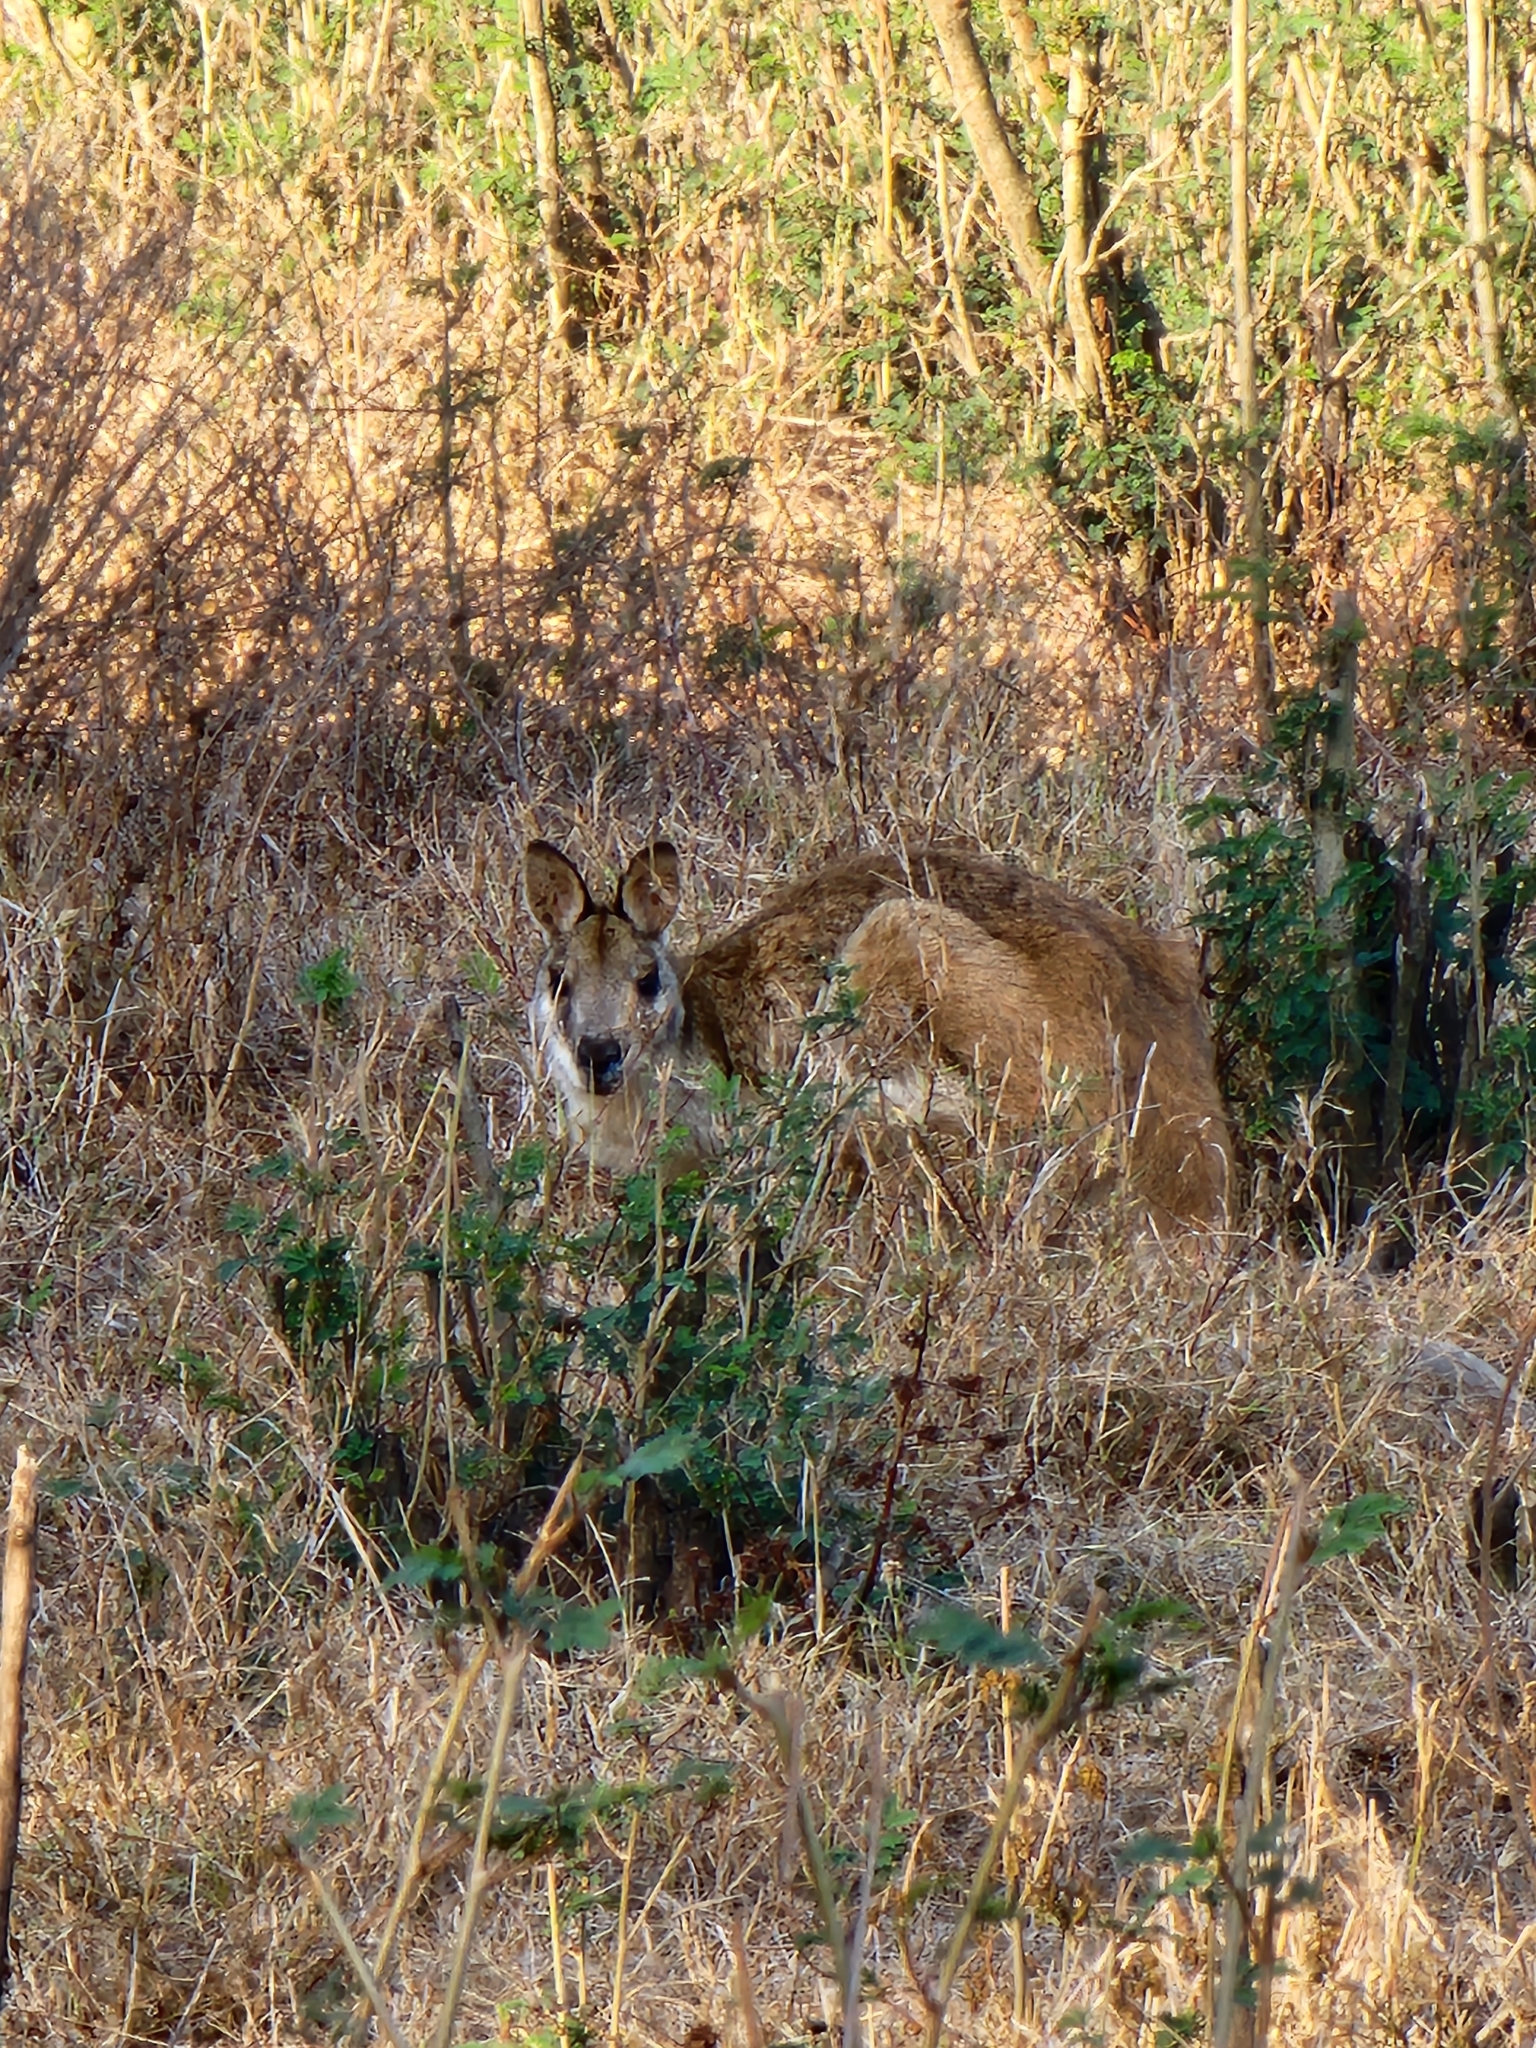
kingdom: Animalia
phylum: Chordata
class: Mammalia
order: Diprotodontia
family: Macropodidae
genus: Macropus
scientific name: Macropus agilis
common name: Agile wallaby
